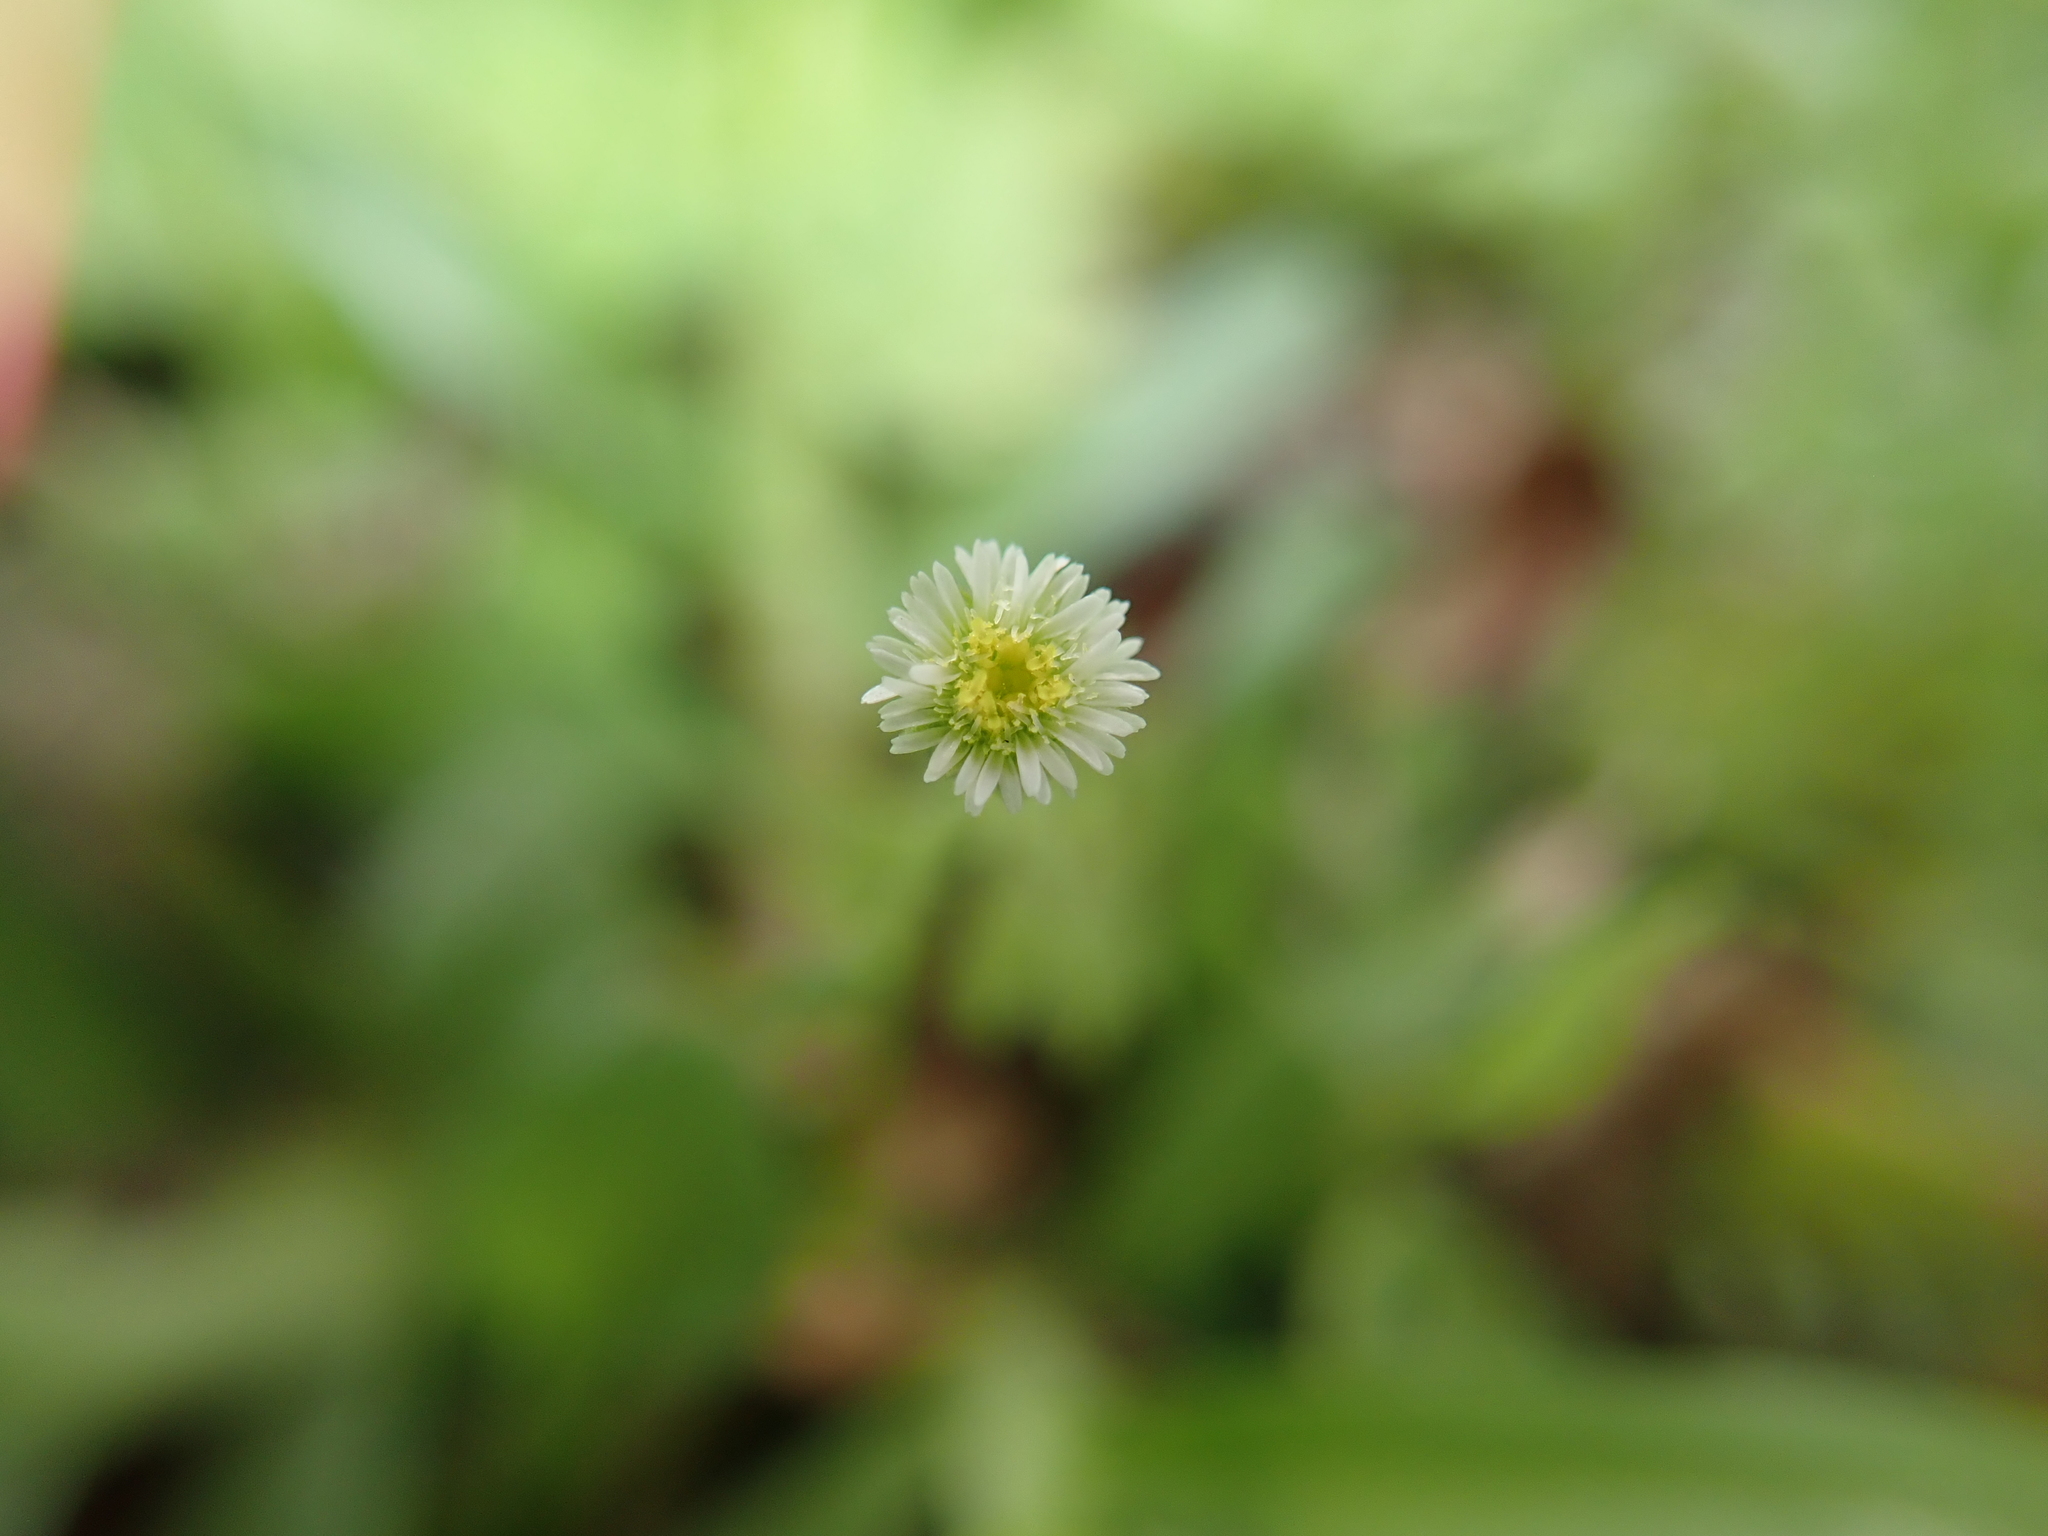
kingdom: Plantae
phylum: Tracheophyta
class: Magnoliopsida
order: Asterales
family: Asteraceae
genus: Erigeron
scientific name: Erigeron bellioides
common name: Bellorita
